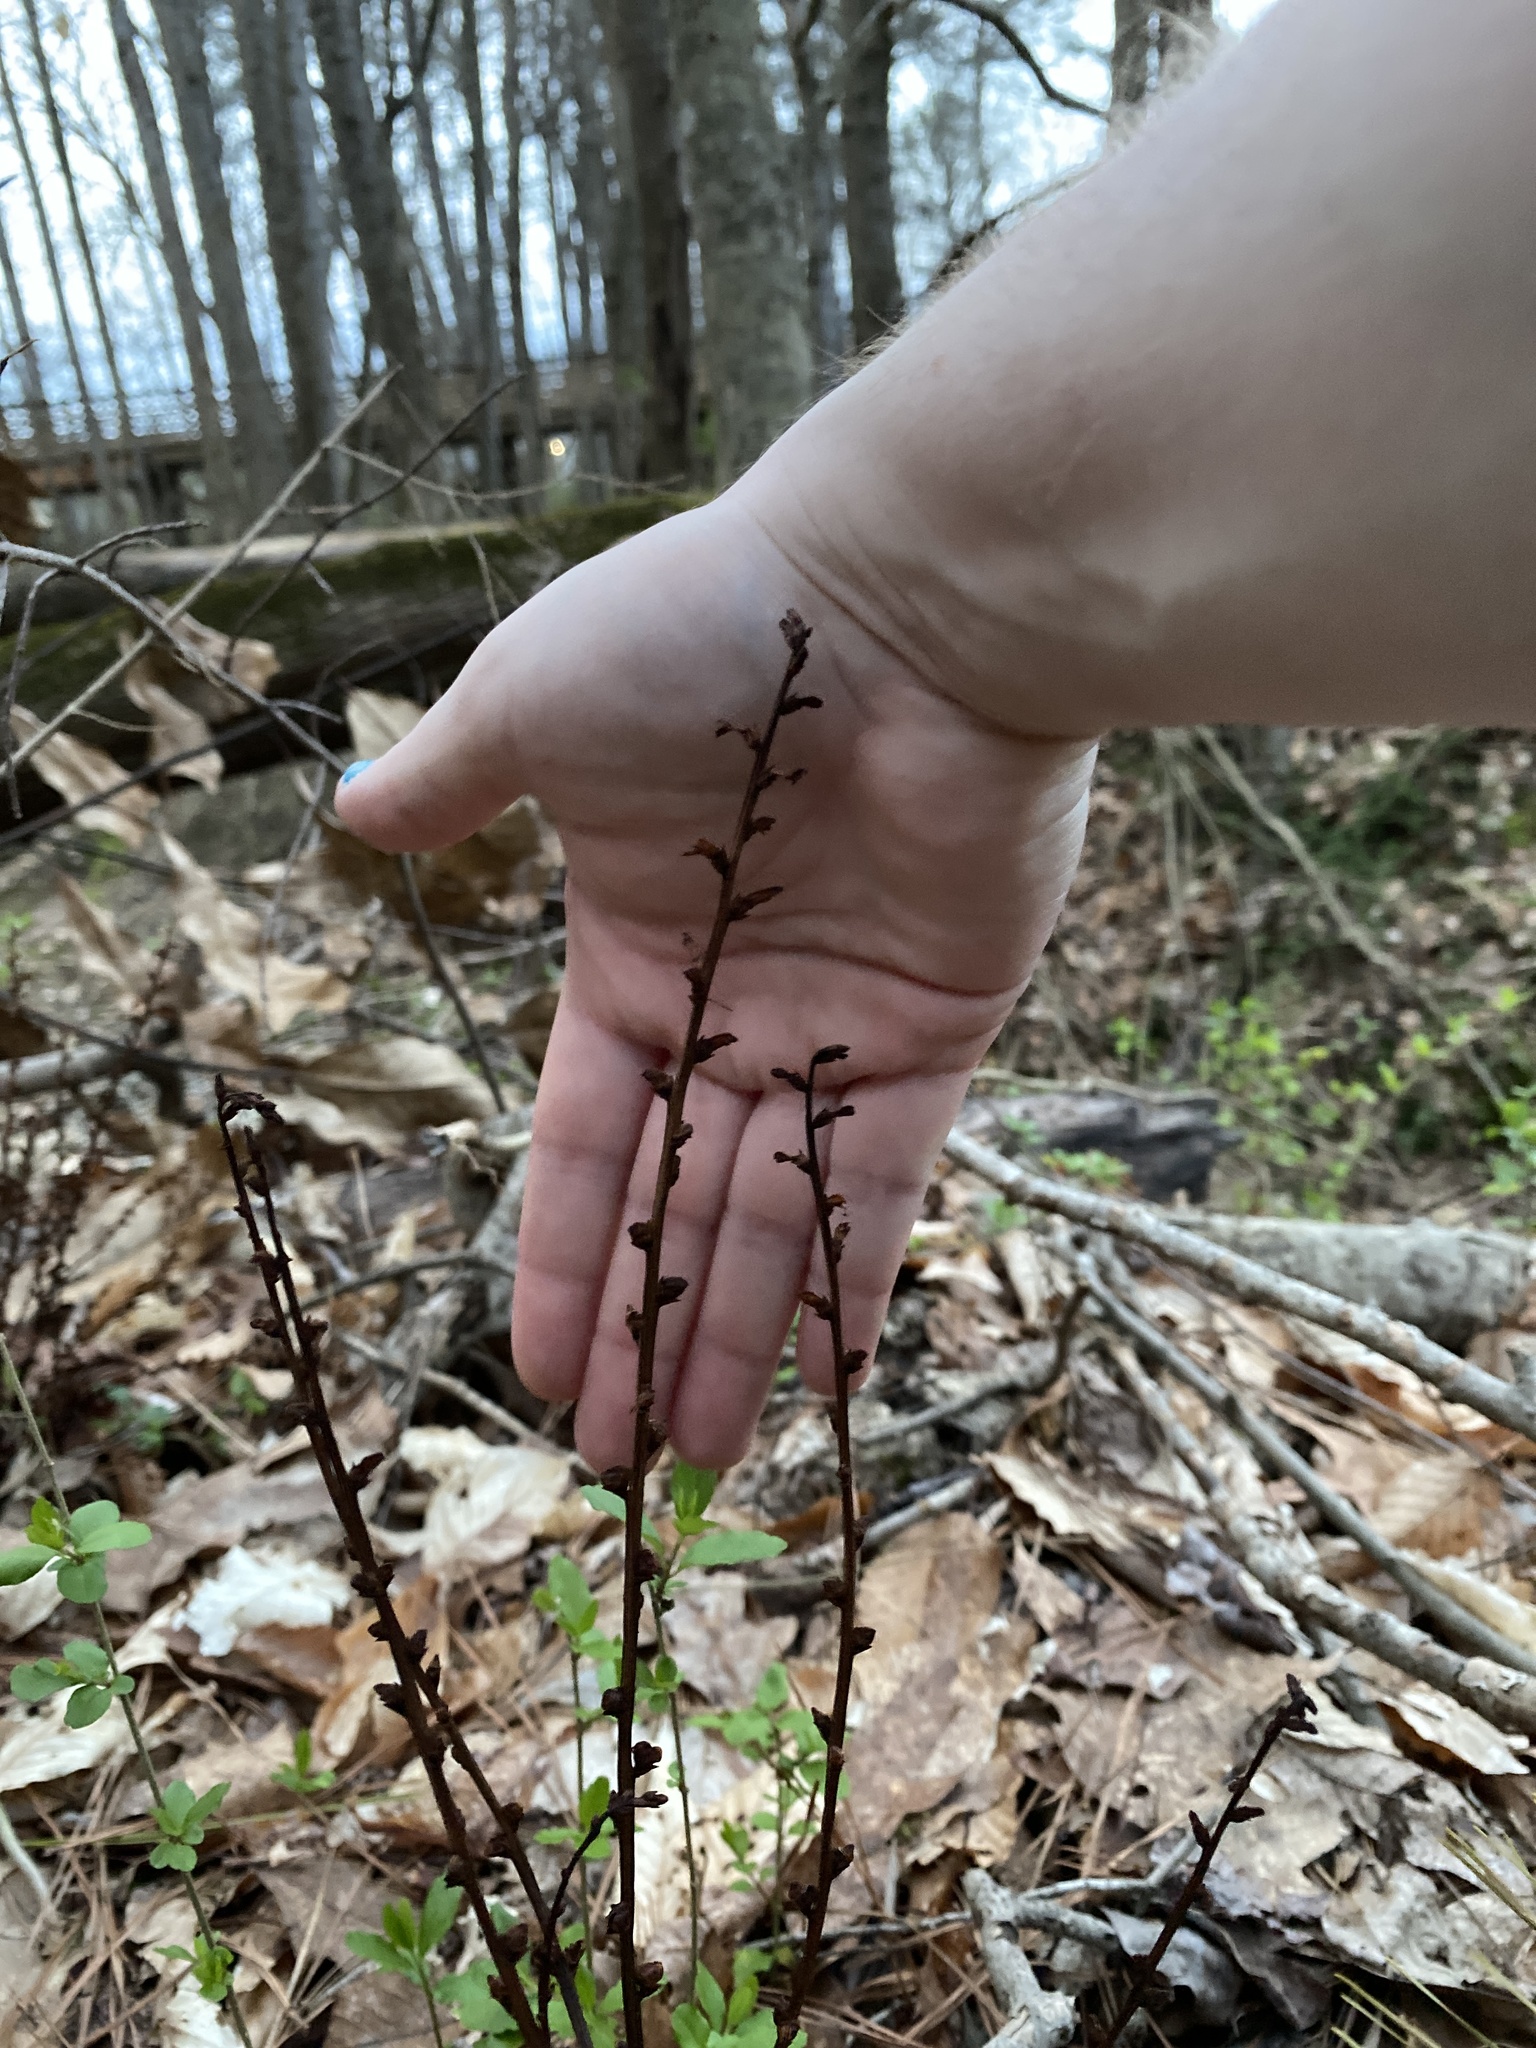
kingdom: Plantae
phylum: Tracheophyta
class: Magnoliopsida
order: Lamiales
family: Orobanchaceae
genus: Epifagus
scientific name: Epifagus virginiana
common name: Beechdrops
